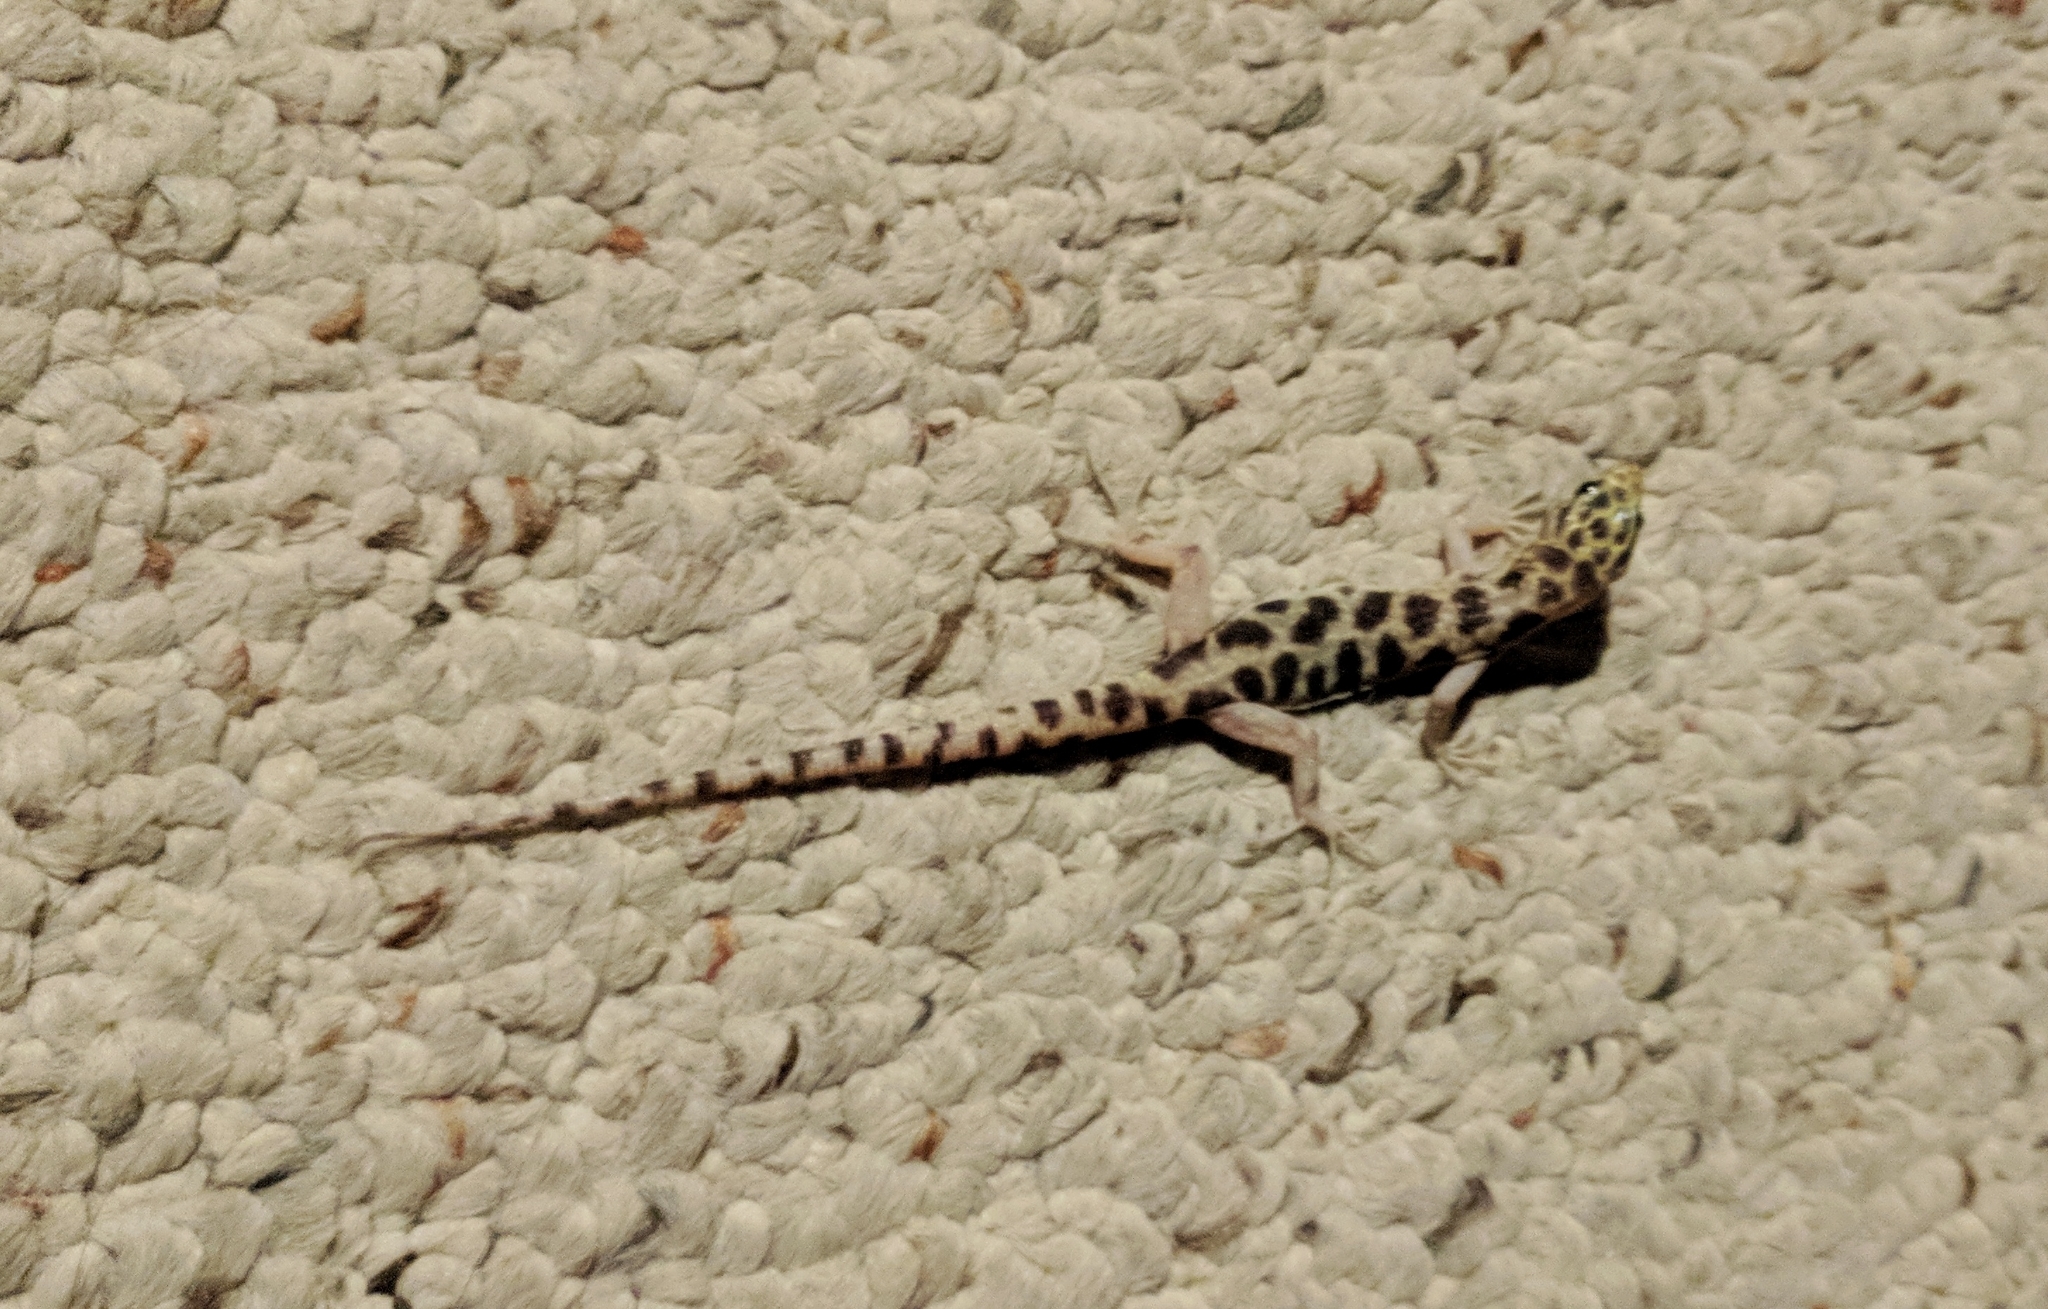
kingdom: Animalia
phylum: Chordata
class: Squamata
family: Xantusiidae
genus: Xantusia
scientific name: Xantusia henshawi
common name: Granite night lizard
